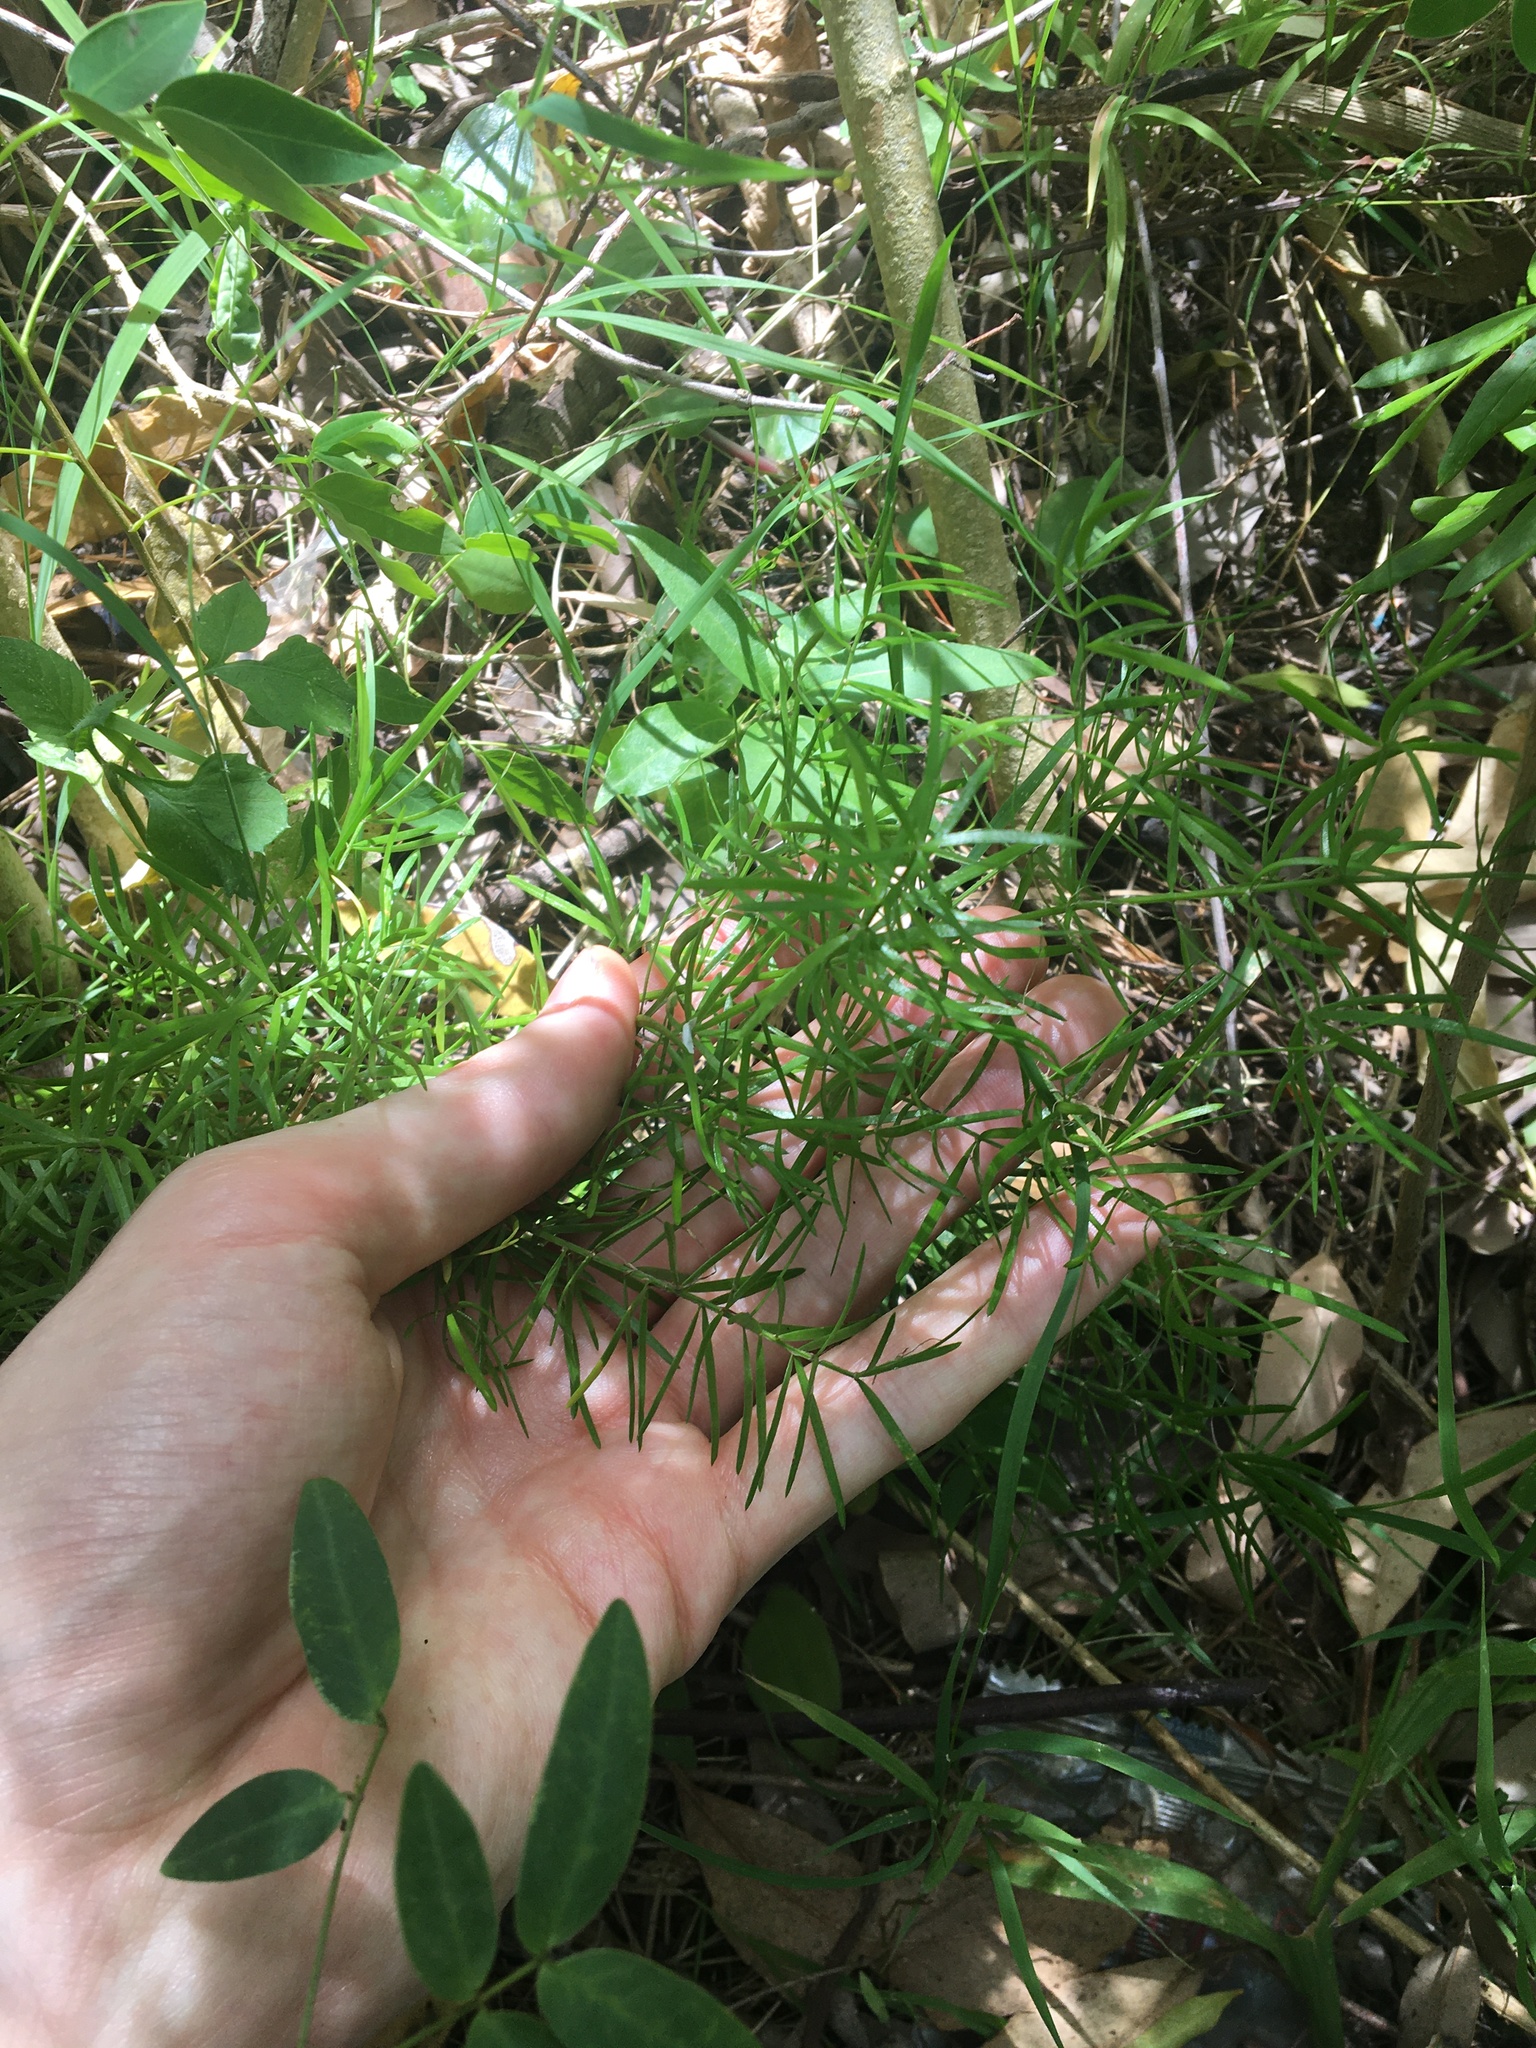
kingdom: Plantae
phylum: Tracheophyta
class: Liliopsida
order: Asparagales
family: Asparagaceae
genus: Asparagus
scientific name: Asparagus aethiopicus
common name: Sprenger's asparagus fern
